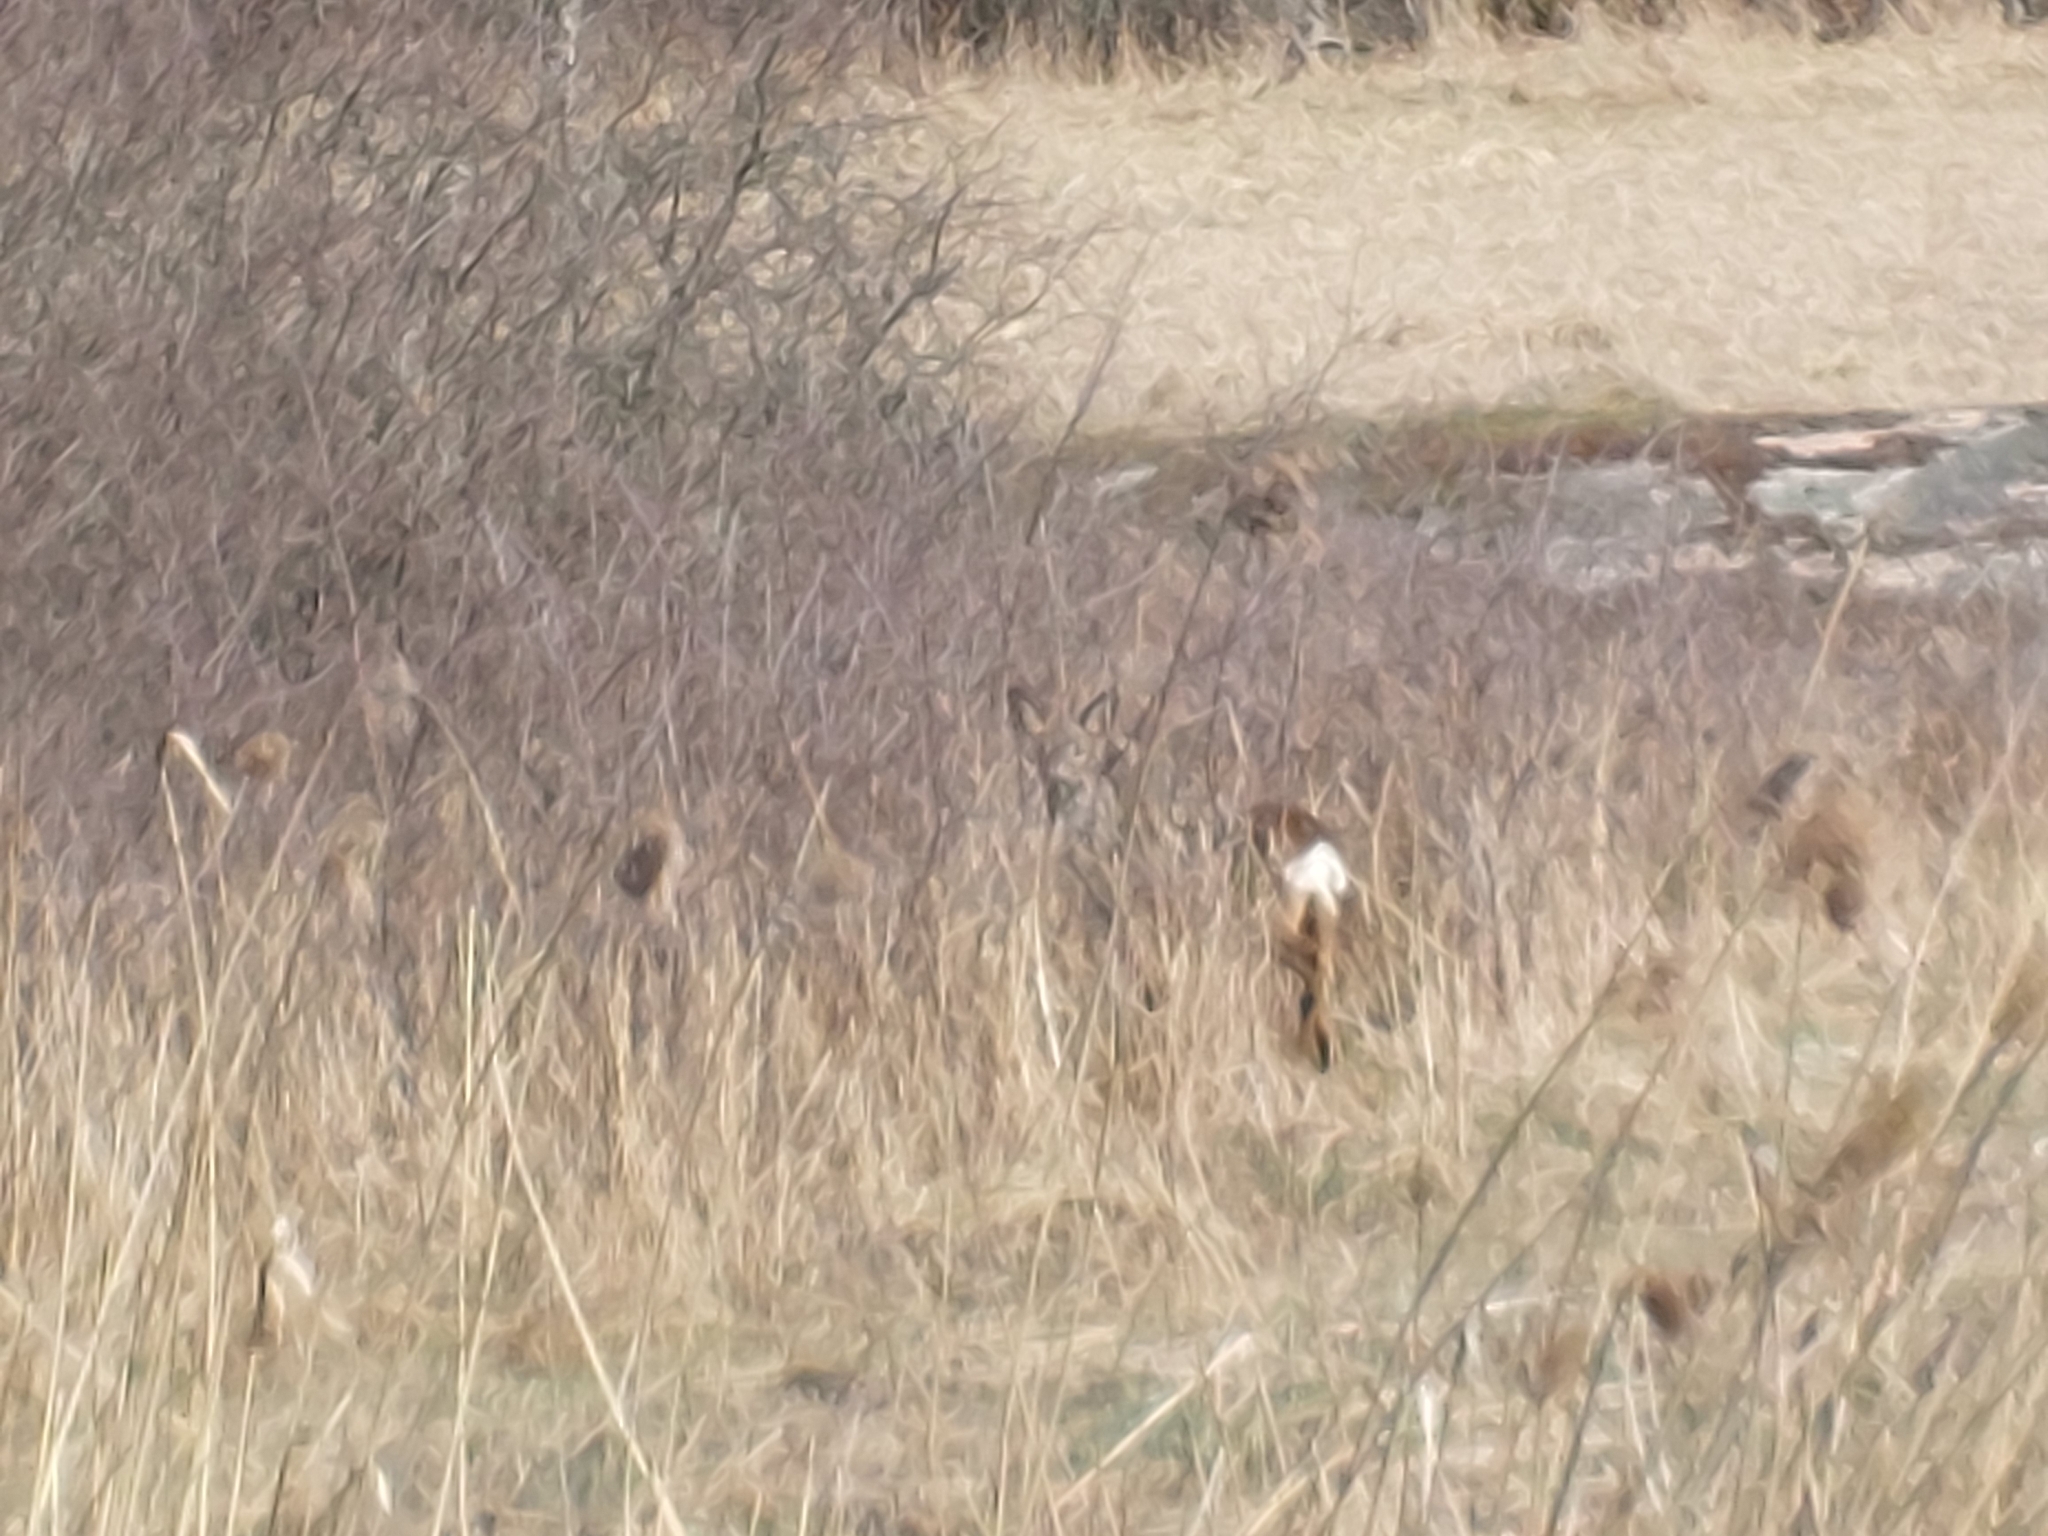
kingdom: Animalia
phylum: Chordata
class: Mammalia
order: Artiodactyla
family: Cervidae
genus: Capreolus
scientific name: Capreolus capreolus
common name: Western roe deer
